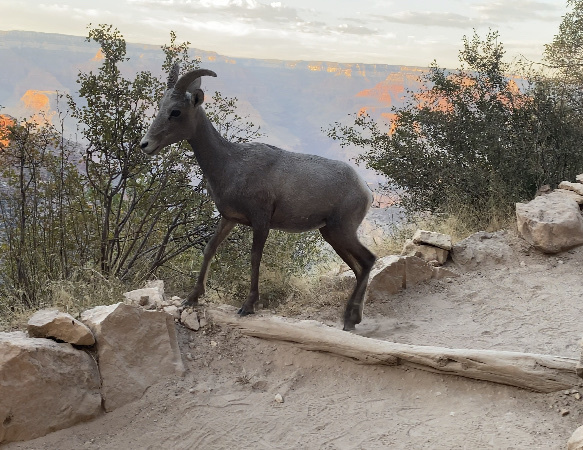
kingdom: Animalia
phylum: Chordata
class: Mammalia
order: Artiodactyla
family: Bovidae
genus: Ovis
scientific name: Ovis canadensis
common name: Bighorn sheep
